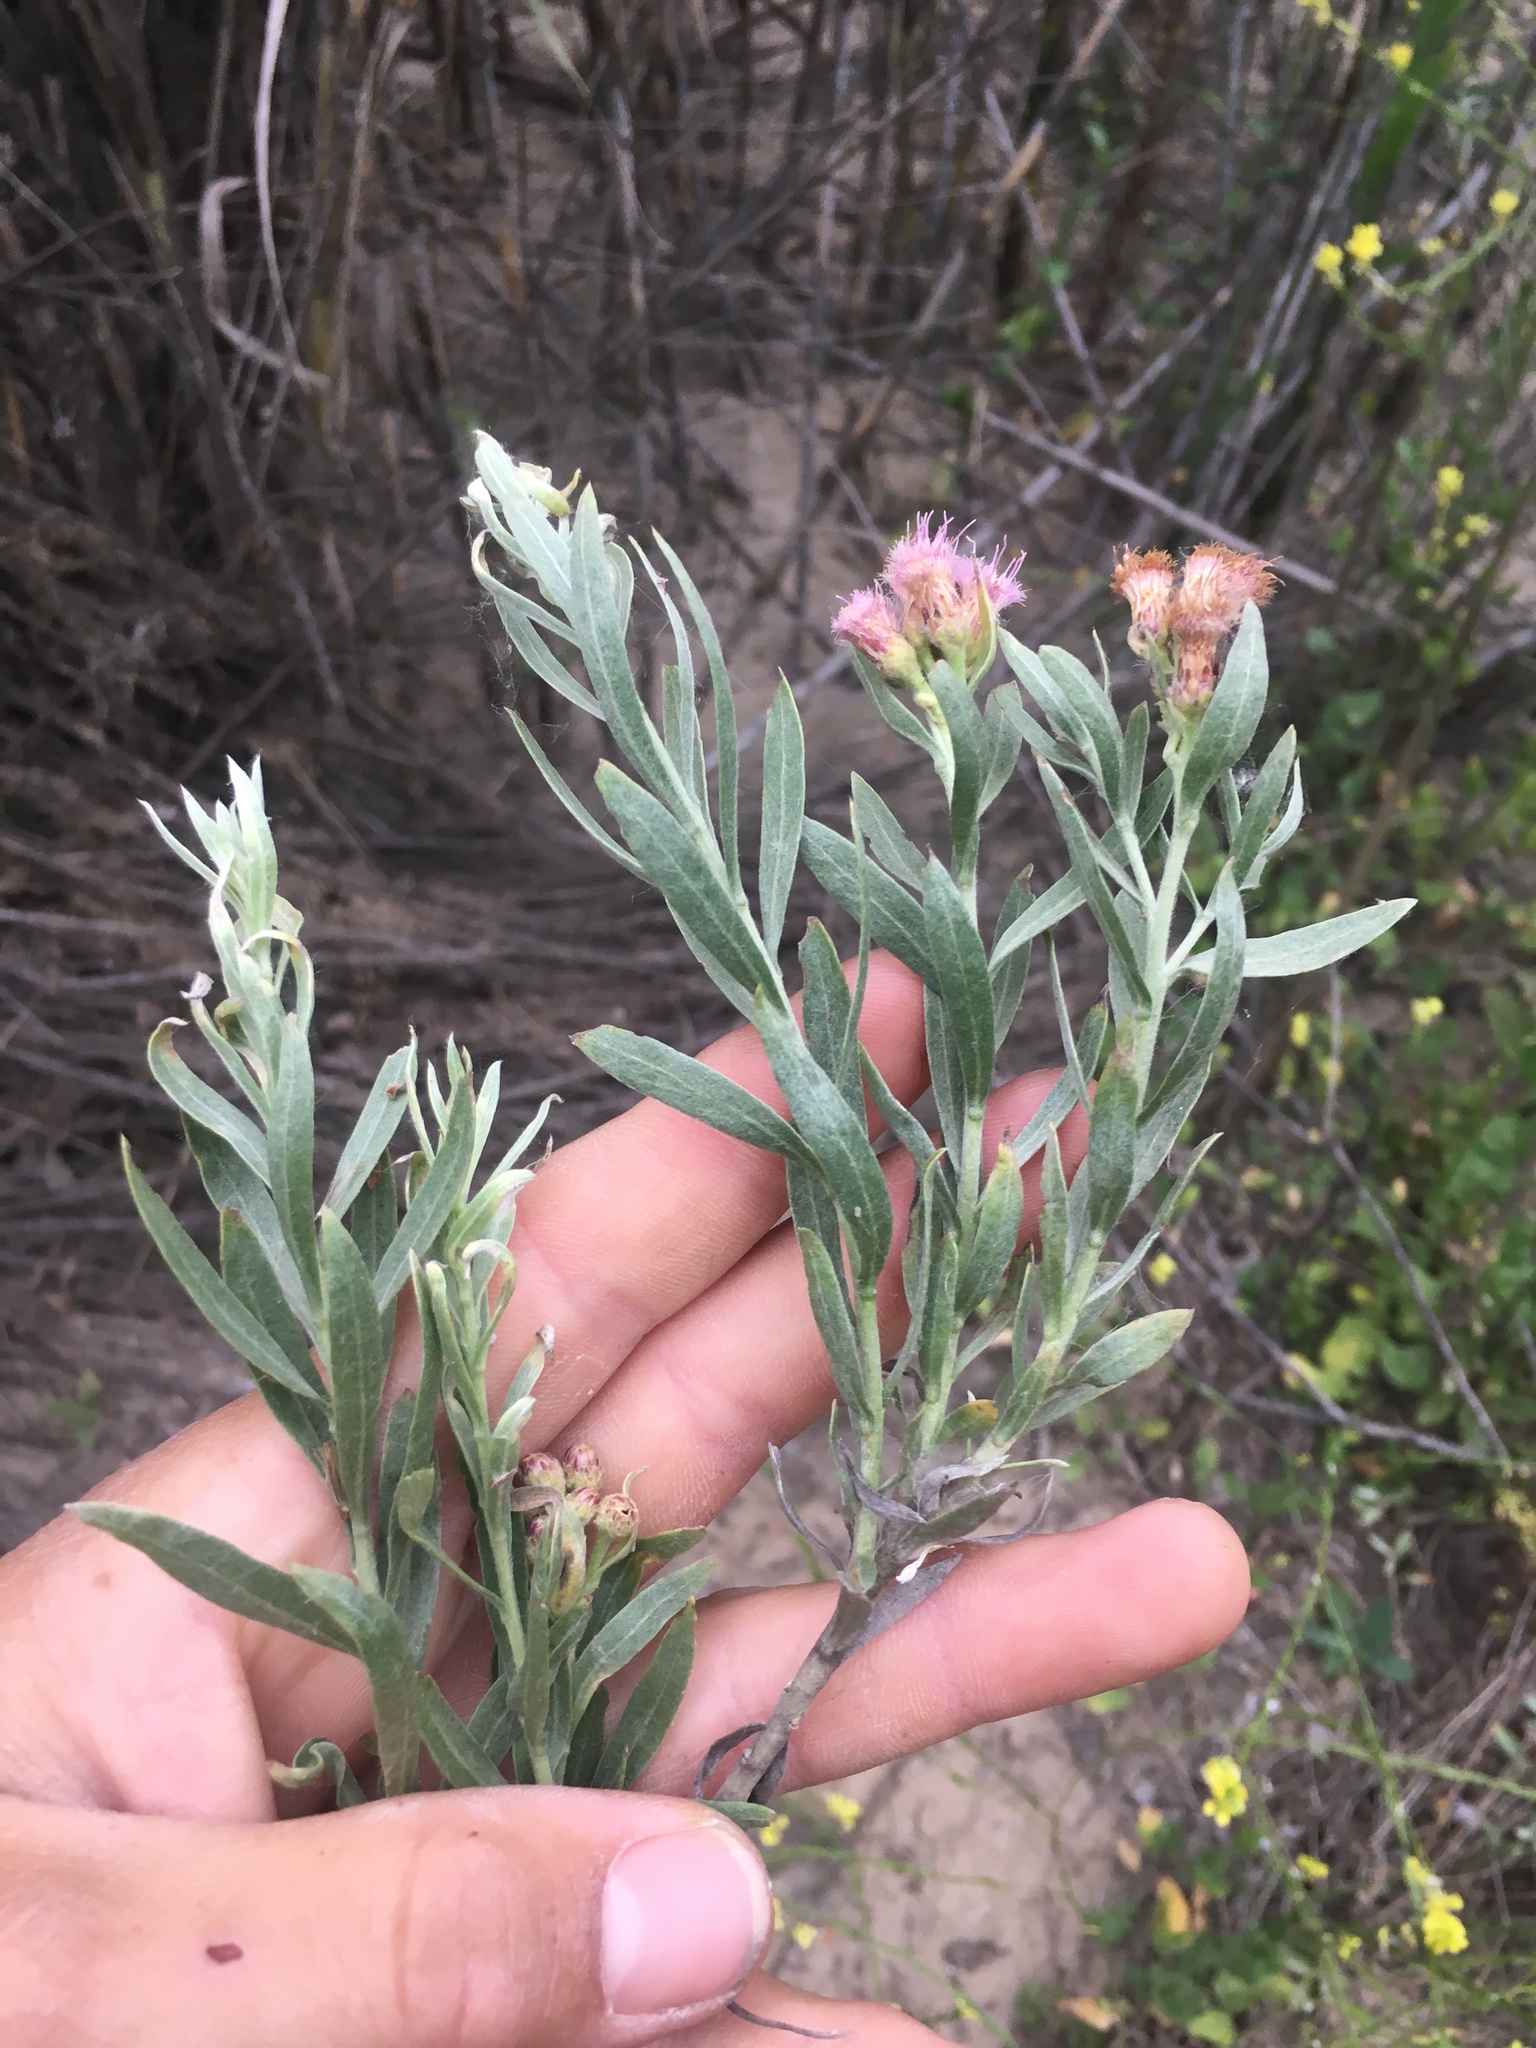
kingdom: Plantae
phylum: Tracheophyta
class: Magnoliopsida
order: Asterales
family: Asteraceae
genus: Pluchea
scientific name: Pluchea sericea
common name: Arrow-weed
